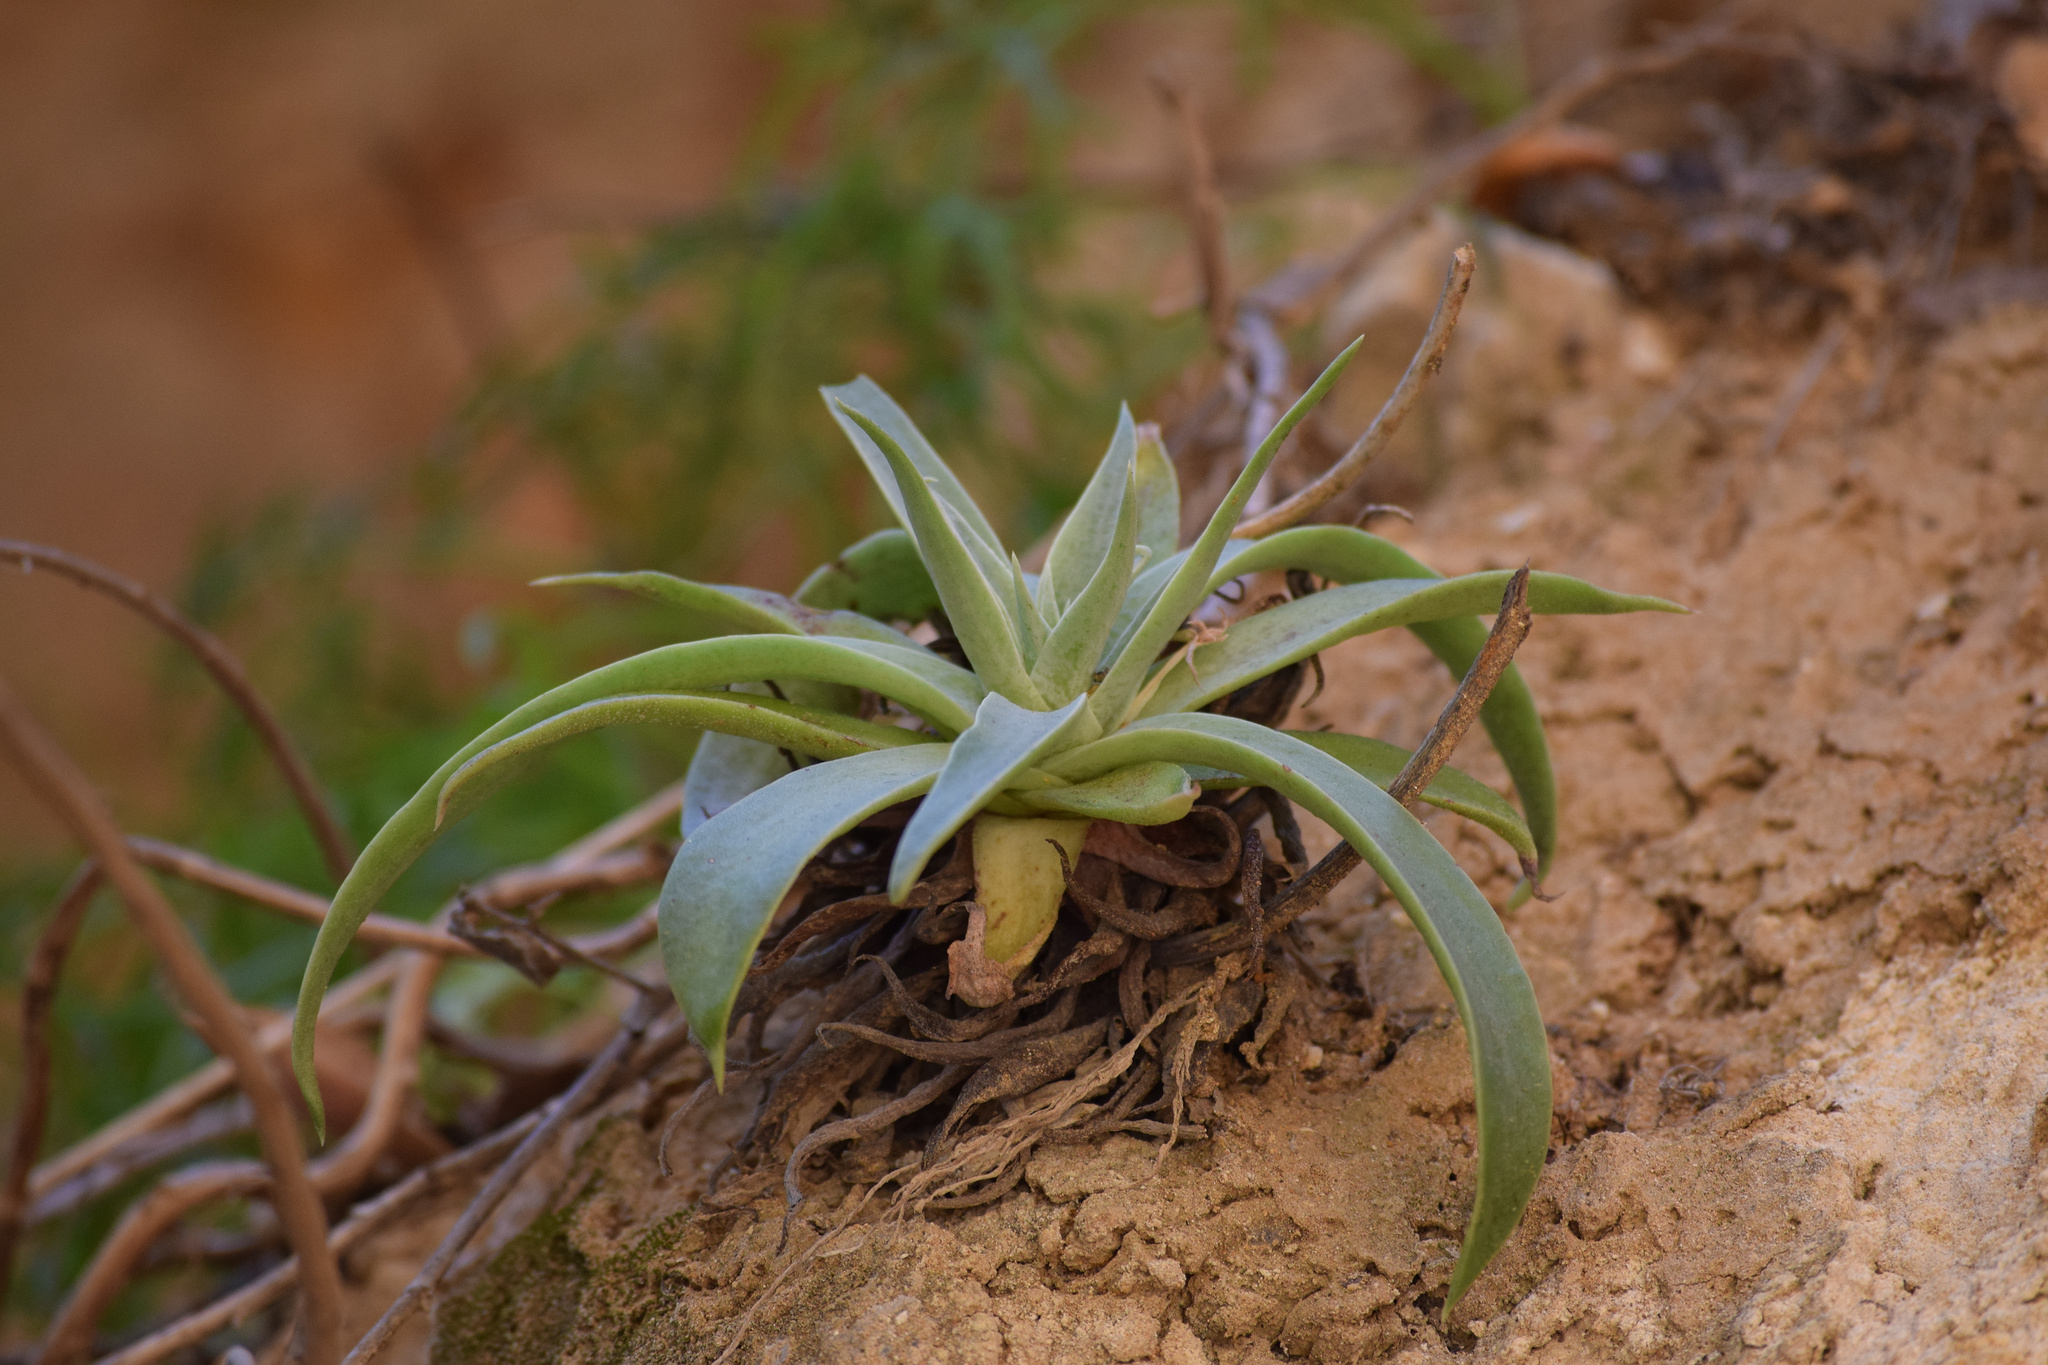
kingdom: Plantae
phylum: Tracheophyta
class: Magnoliopsida
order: Saxifragales
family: Crassulaceae
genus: Dudleya
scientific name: Dudleya lanceolata
